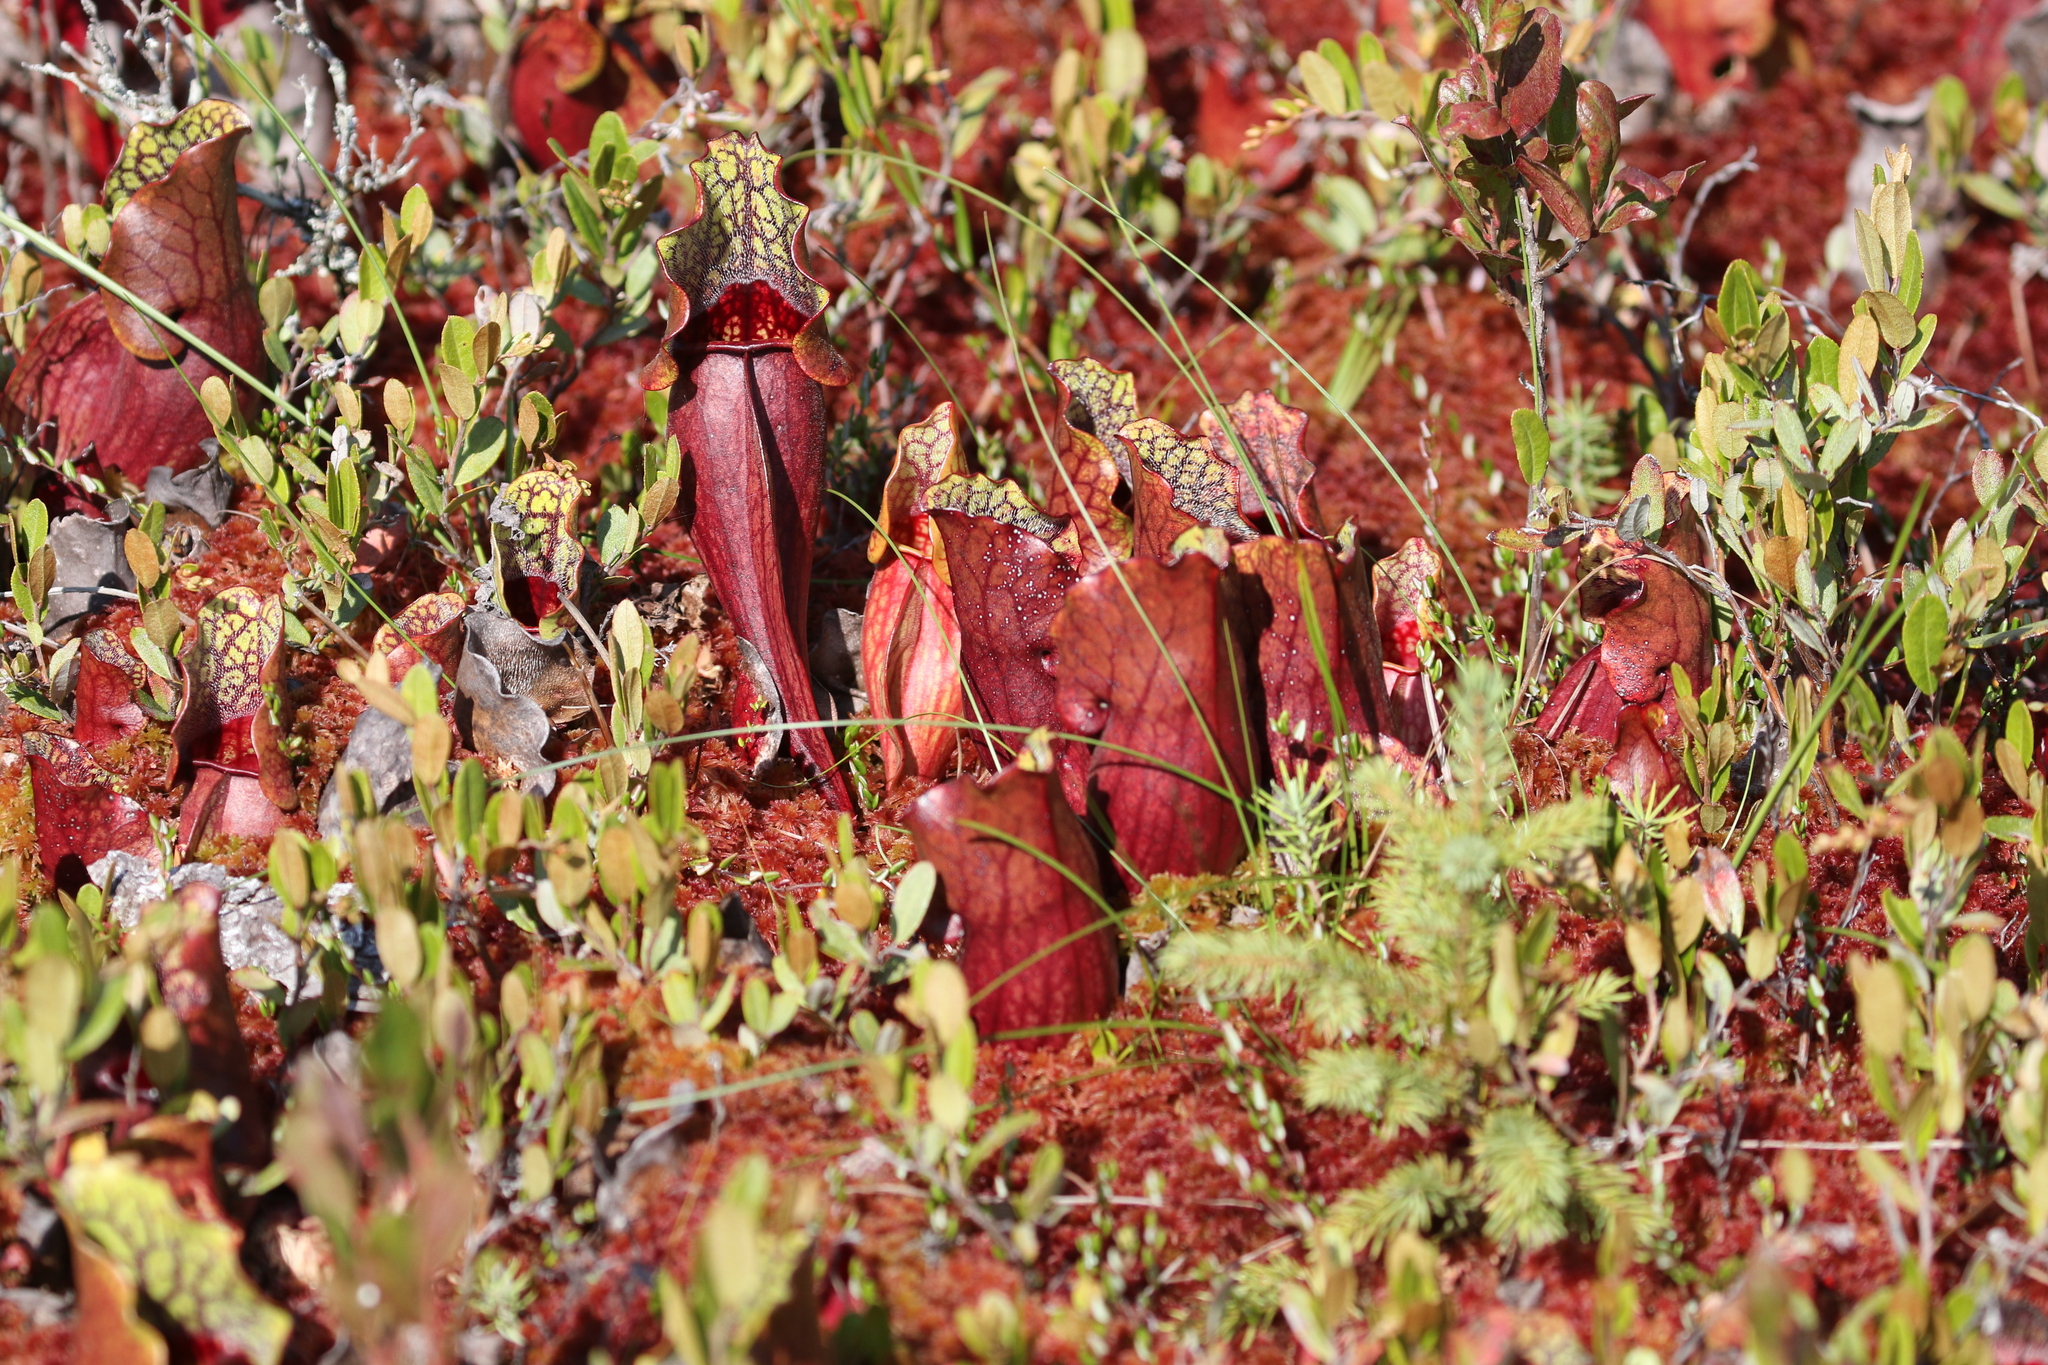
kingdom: Plantae
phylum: Tracheophyta
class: Magnoliopsida
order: Ericales
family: Sarraceniaceae
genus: Sarracenia
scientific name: Sarracenia purpurea
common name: Pitcherplant
